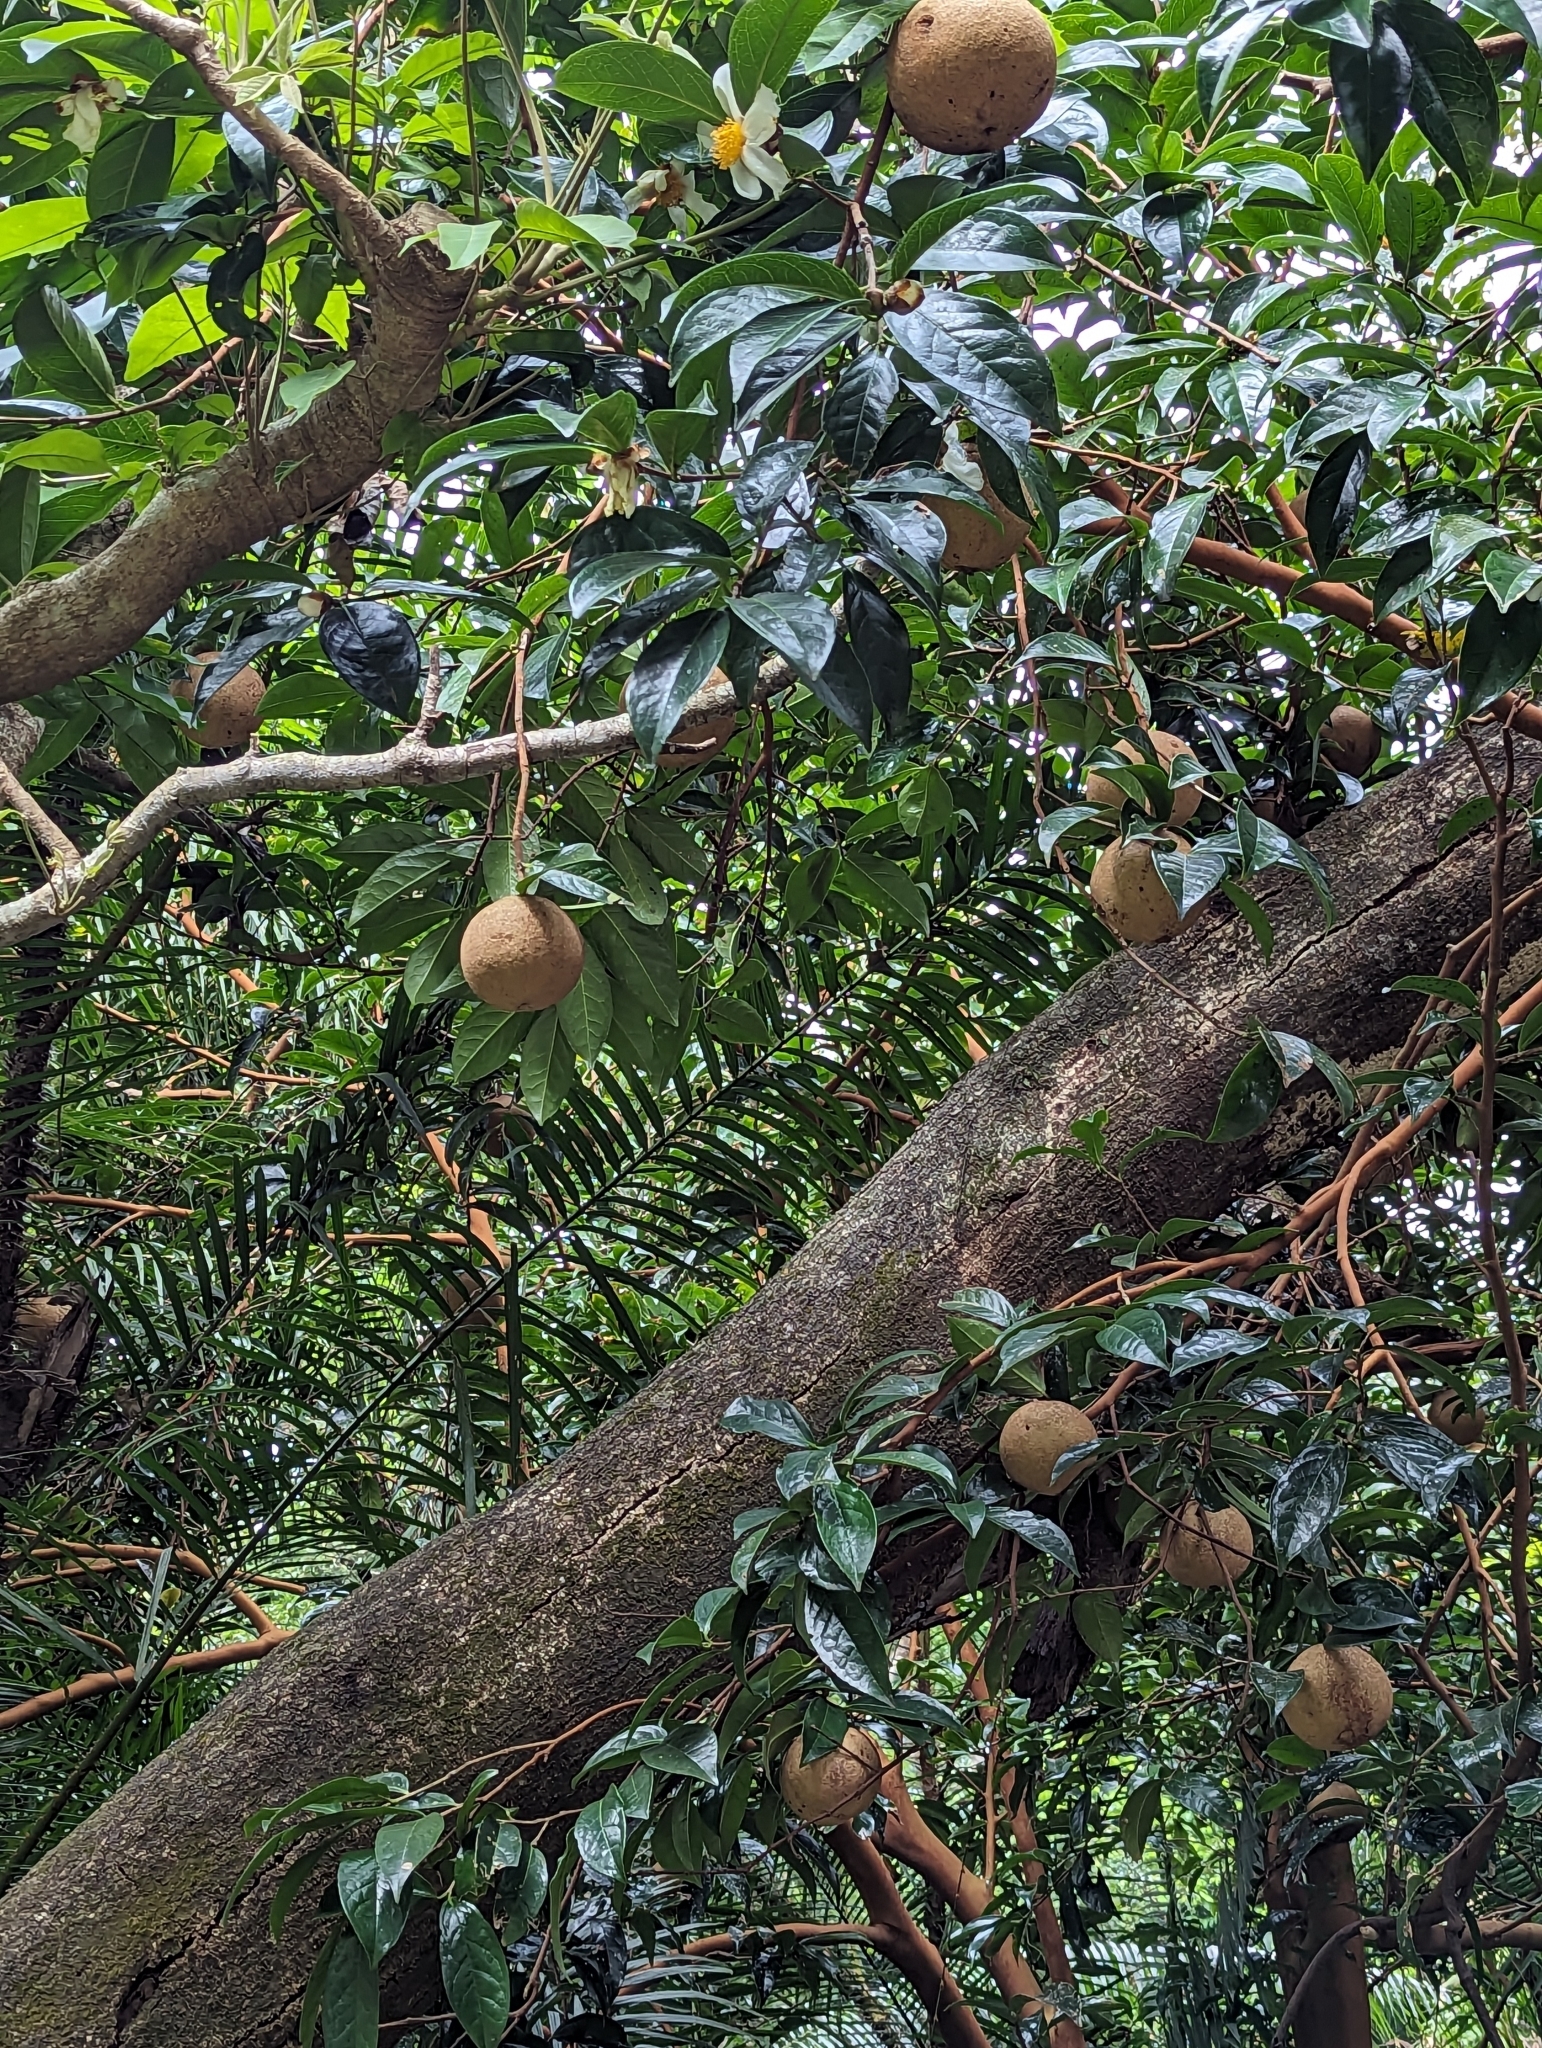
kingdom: Plantae
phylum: Tracheophyta
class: Magnoliopsida
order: Ericales
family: Theaceae
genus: Camellia
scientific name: Camellia crapnelliana
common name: Crapnell's camellia
